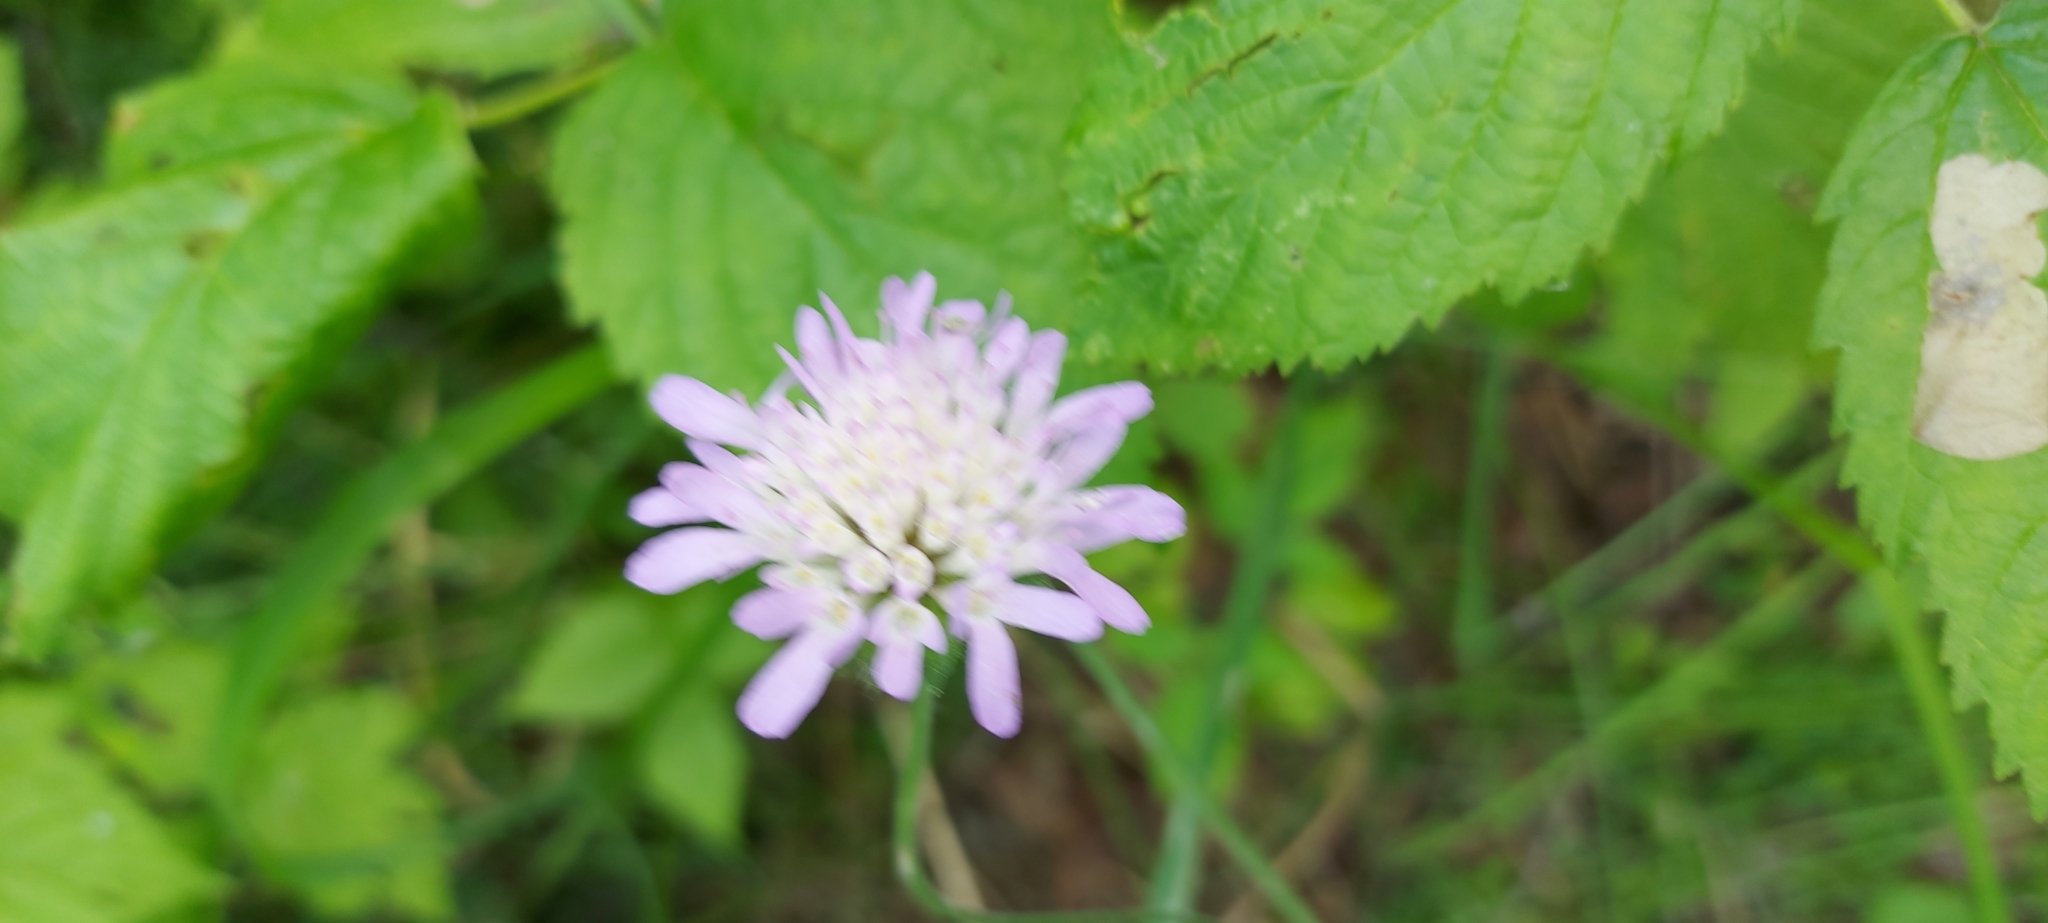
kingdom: Plantae
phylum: Tracheophyta
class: Magnoliopsida
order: Dipsacales
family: Caprifoliaceae
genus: Knautia
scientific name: Knautia arvensis
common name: Field scabiosa
